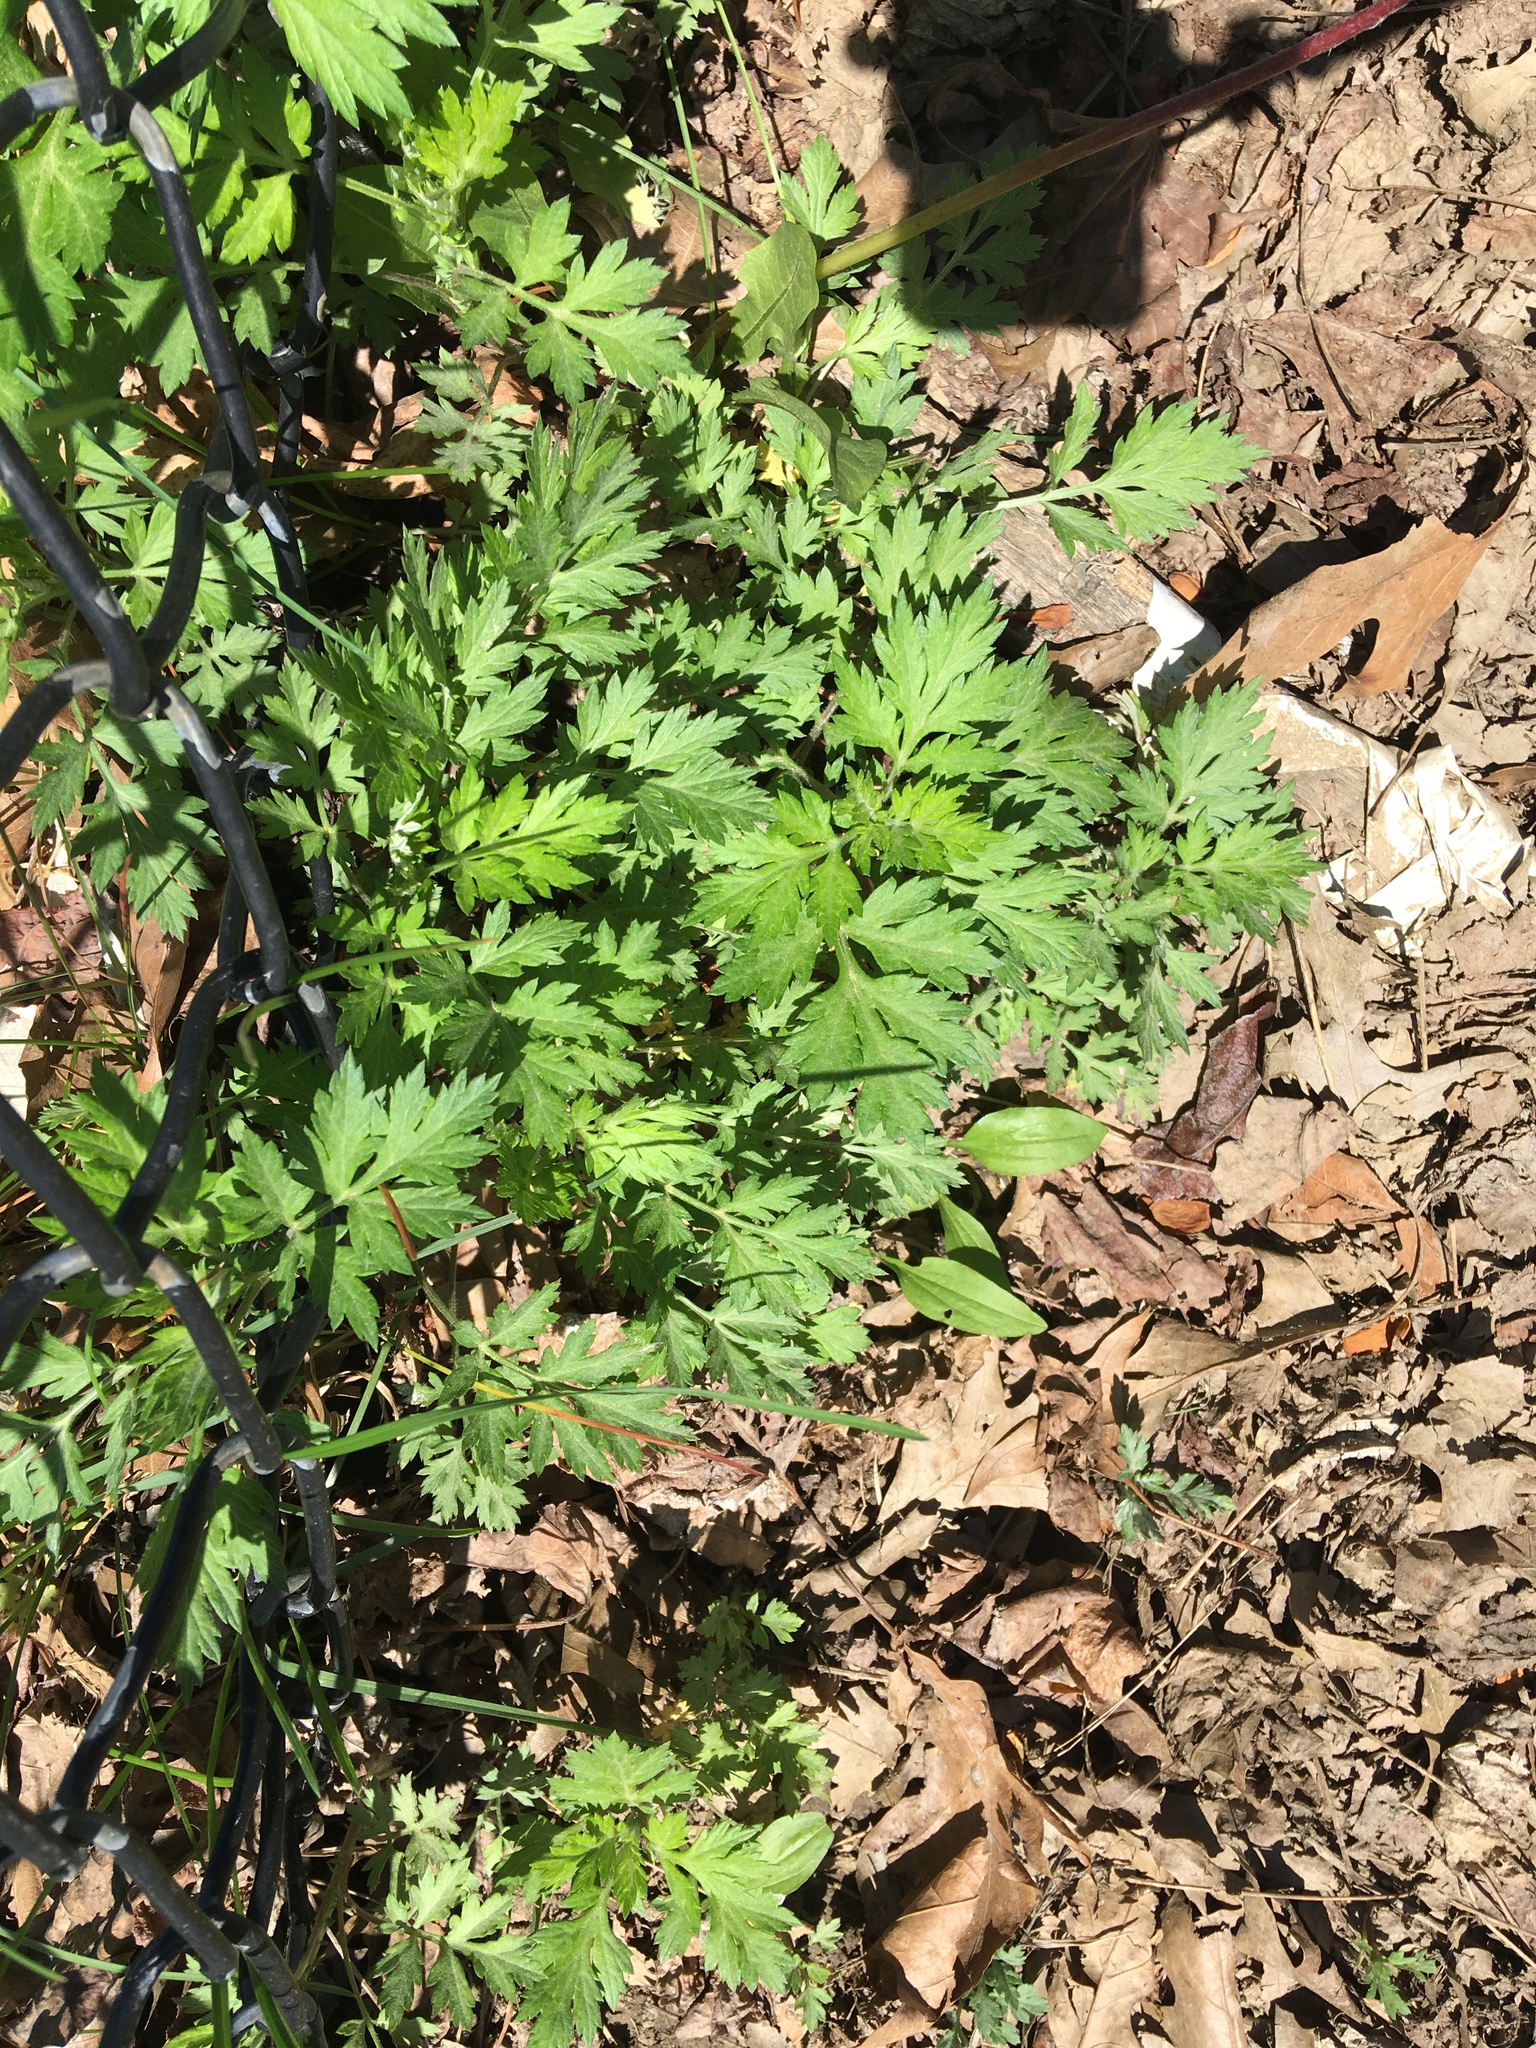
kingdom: Plantae
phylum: Tracheophyta
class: Magnoliopsida
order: Asterales
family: Asteraceae
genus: Artemisia
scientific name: Artemisia vulgaris
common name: Mugwort
